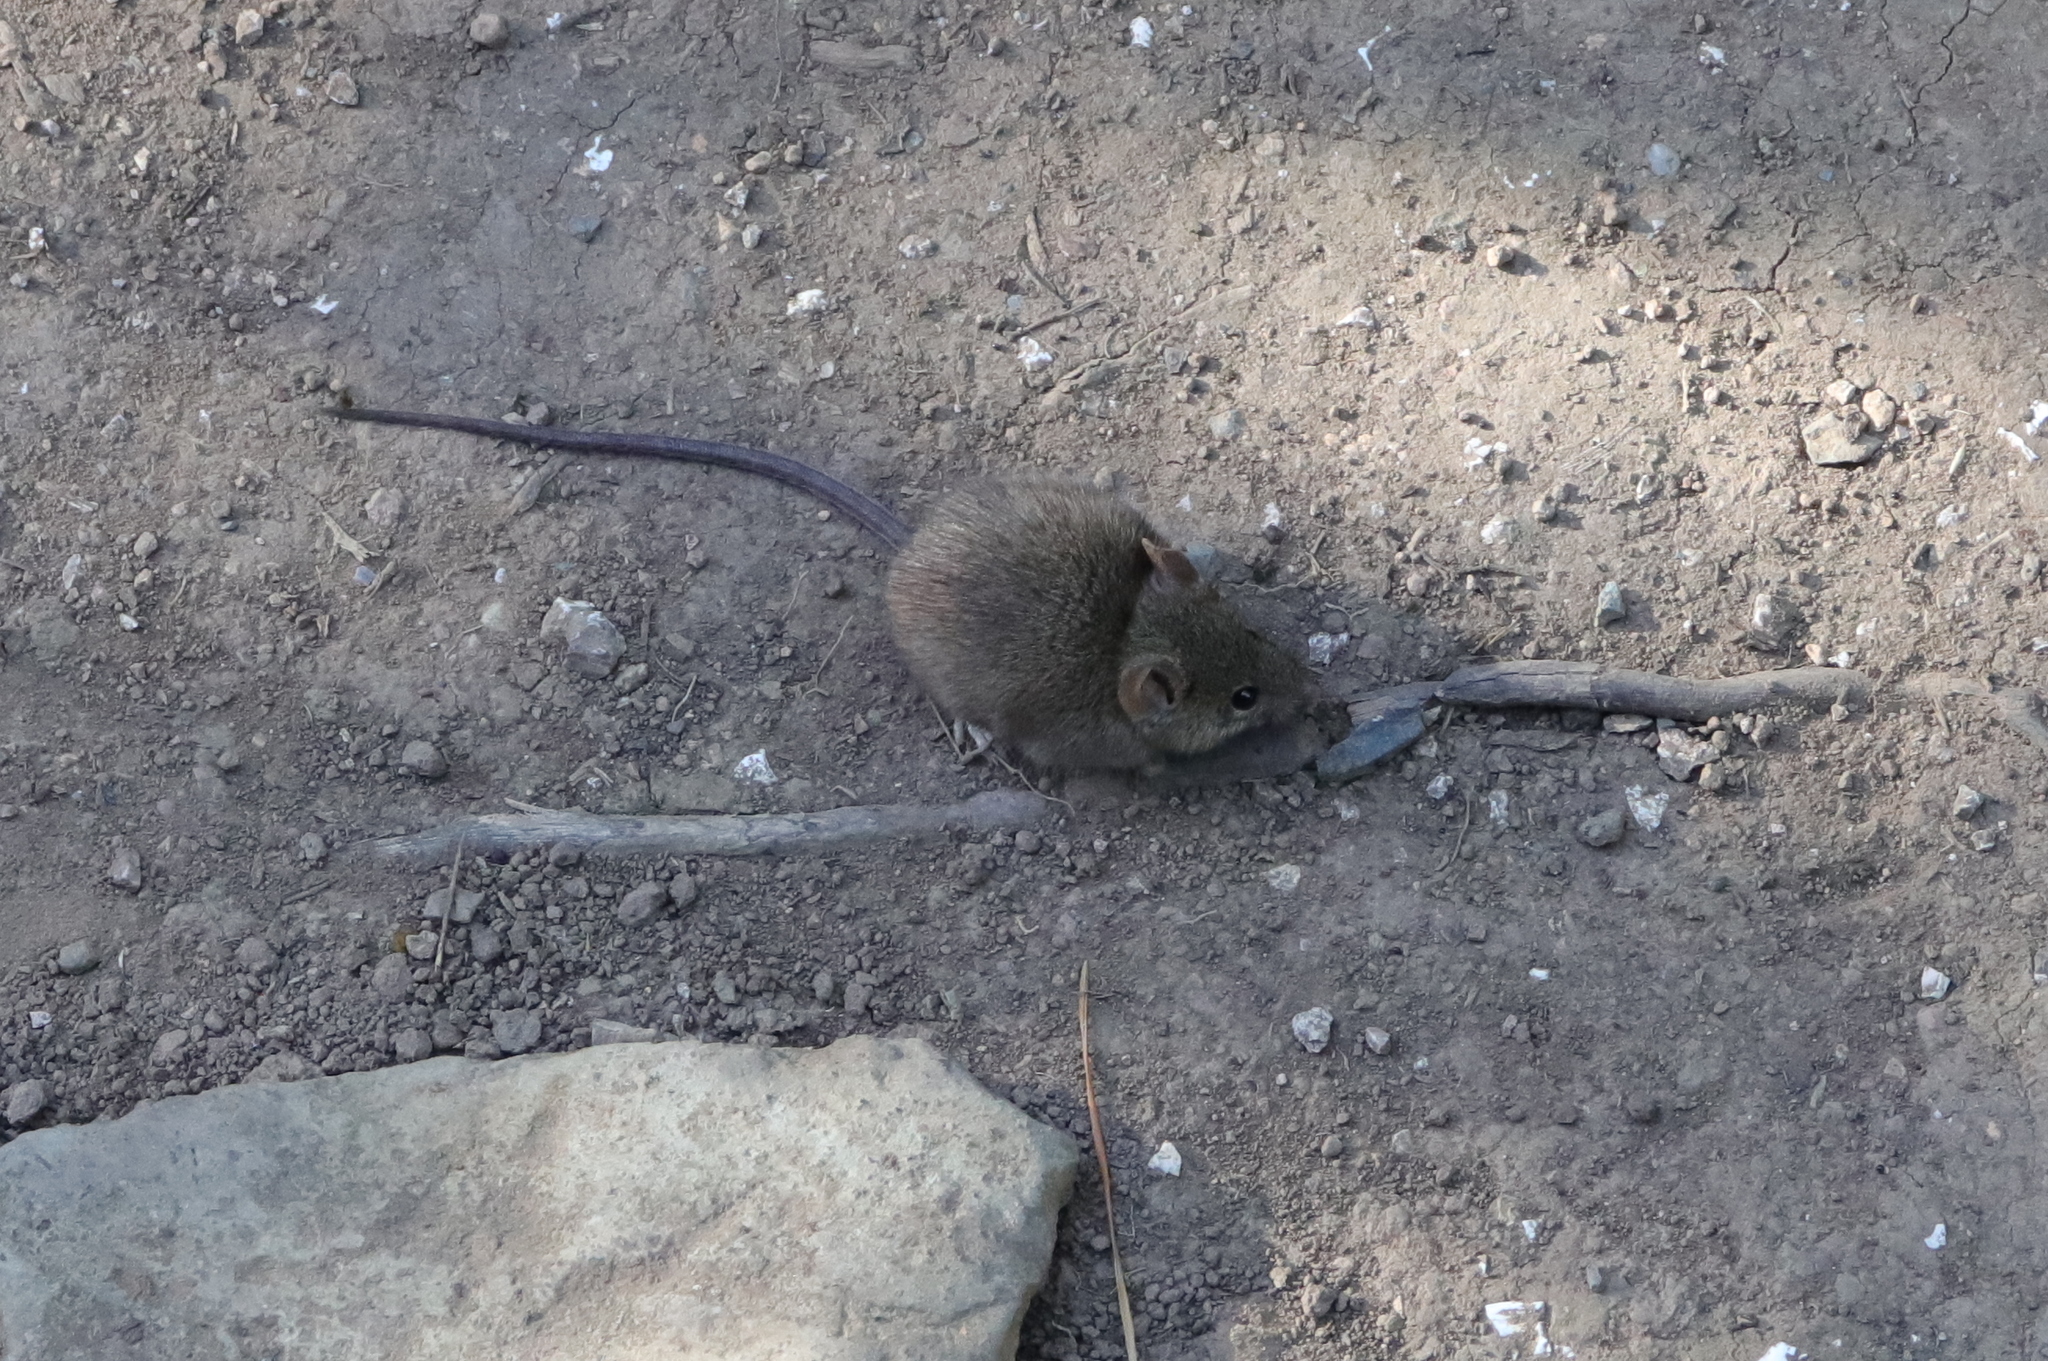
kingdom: Animalia
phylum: Chordata
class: Mammalia
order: Rodentia
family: Muridae
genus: Mus
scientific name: Mus musculus
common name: House mouse
